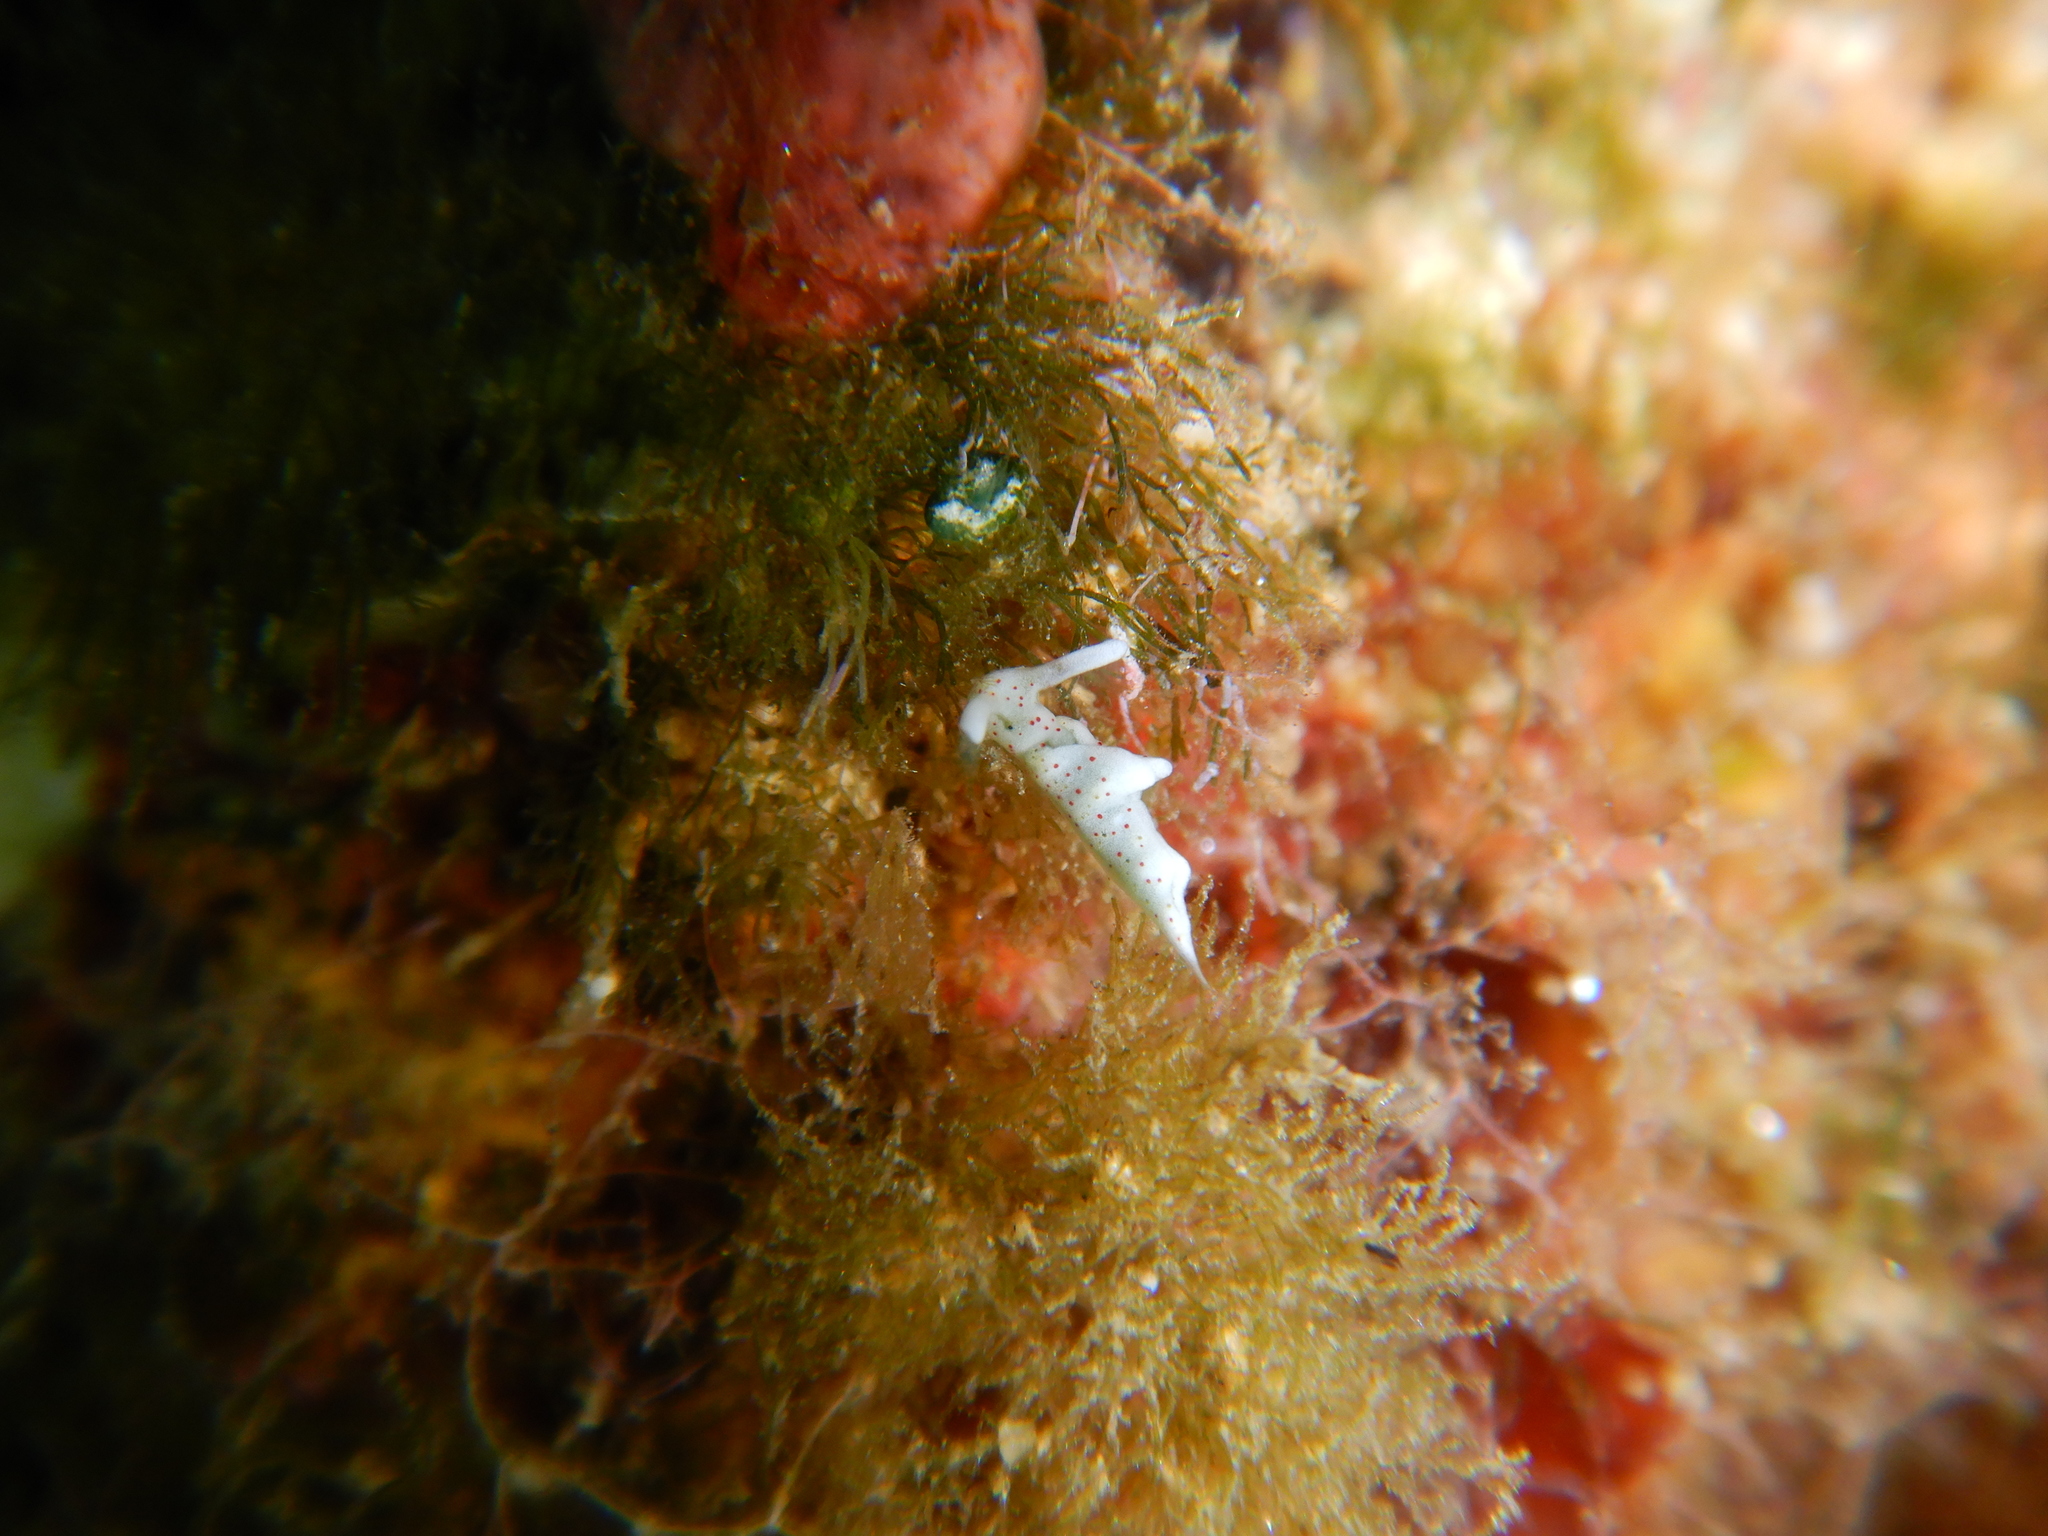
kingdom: Animalia
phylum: Mollusca
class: Gastropoda
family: Plakobranchidae
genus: Elysia
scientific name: Elysia timida
